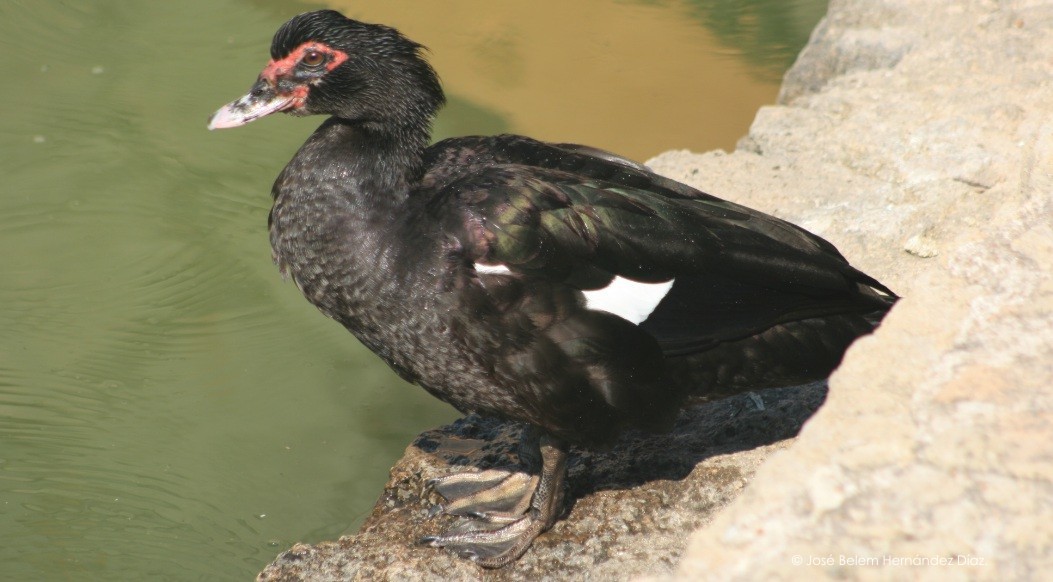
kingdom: Animalia
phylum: Chordata
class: Aves
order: Anseriformes
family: Anatidae
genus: Cairina
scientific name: Cairina moschata
